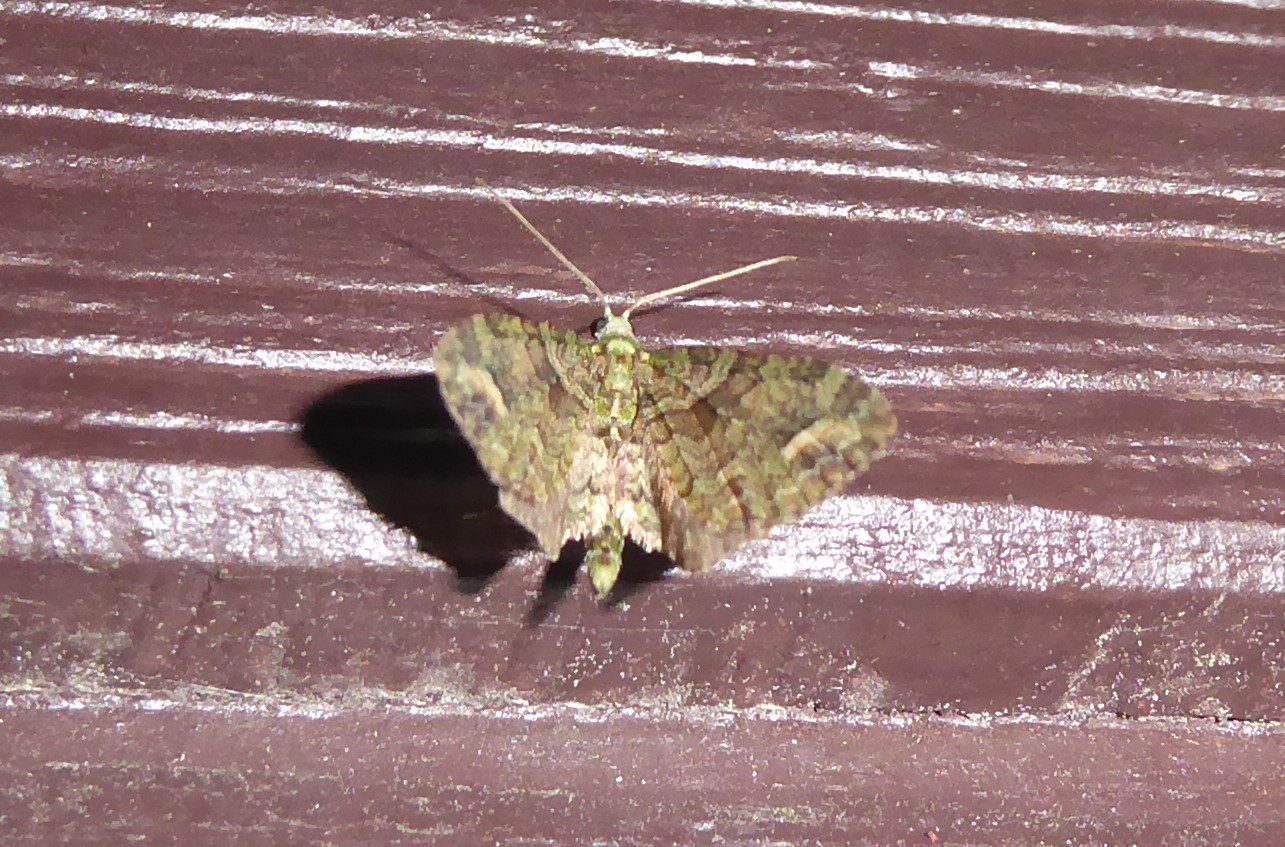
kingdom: Animalia
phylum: Arthropoda
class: Insecta
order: Lepidoptera
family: Geometridae
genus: Idaea
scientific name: Idaea mutanda
